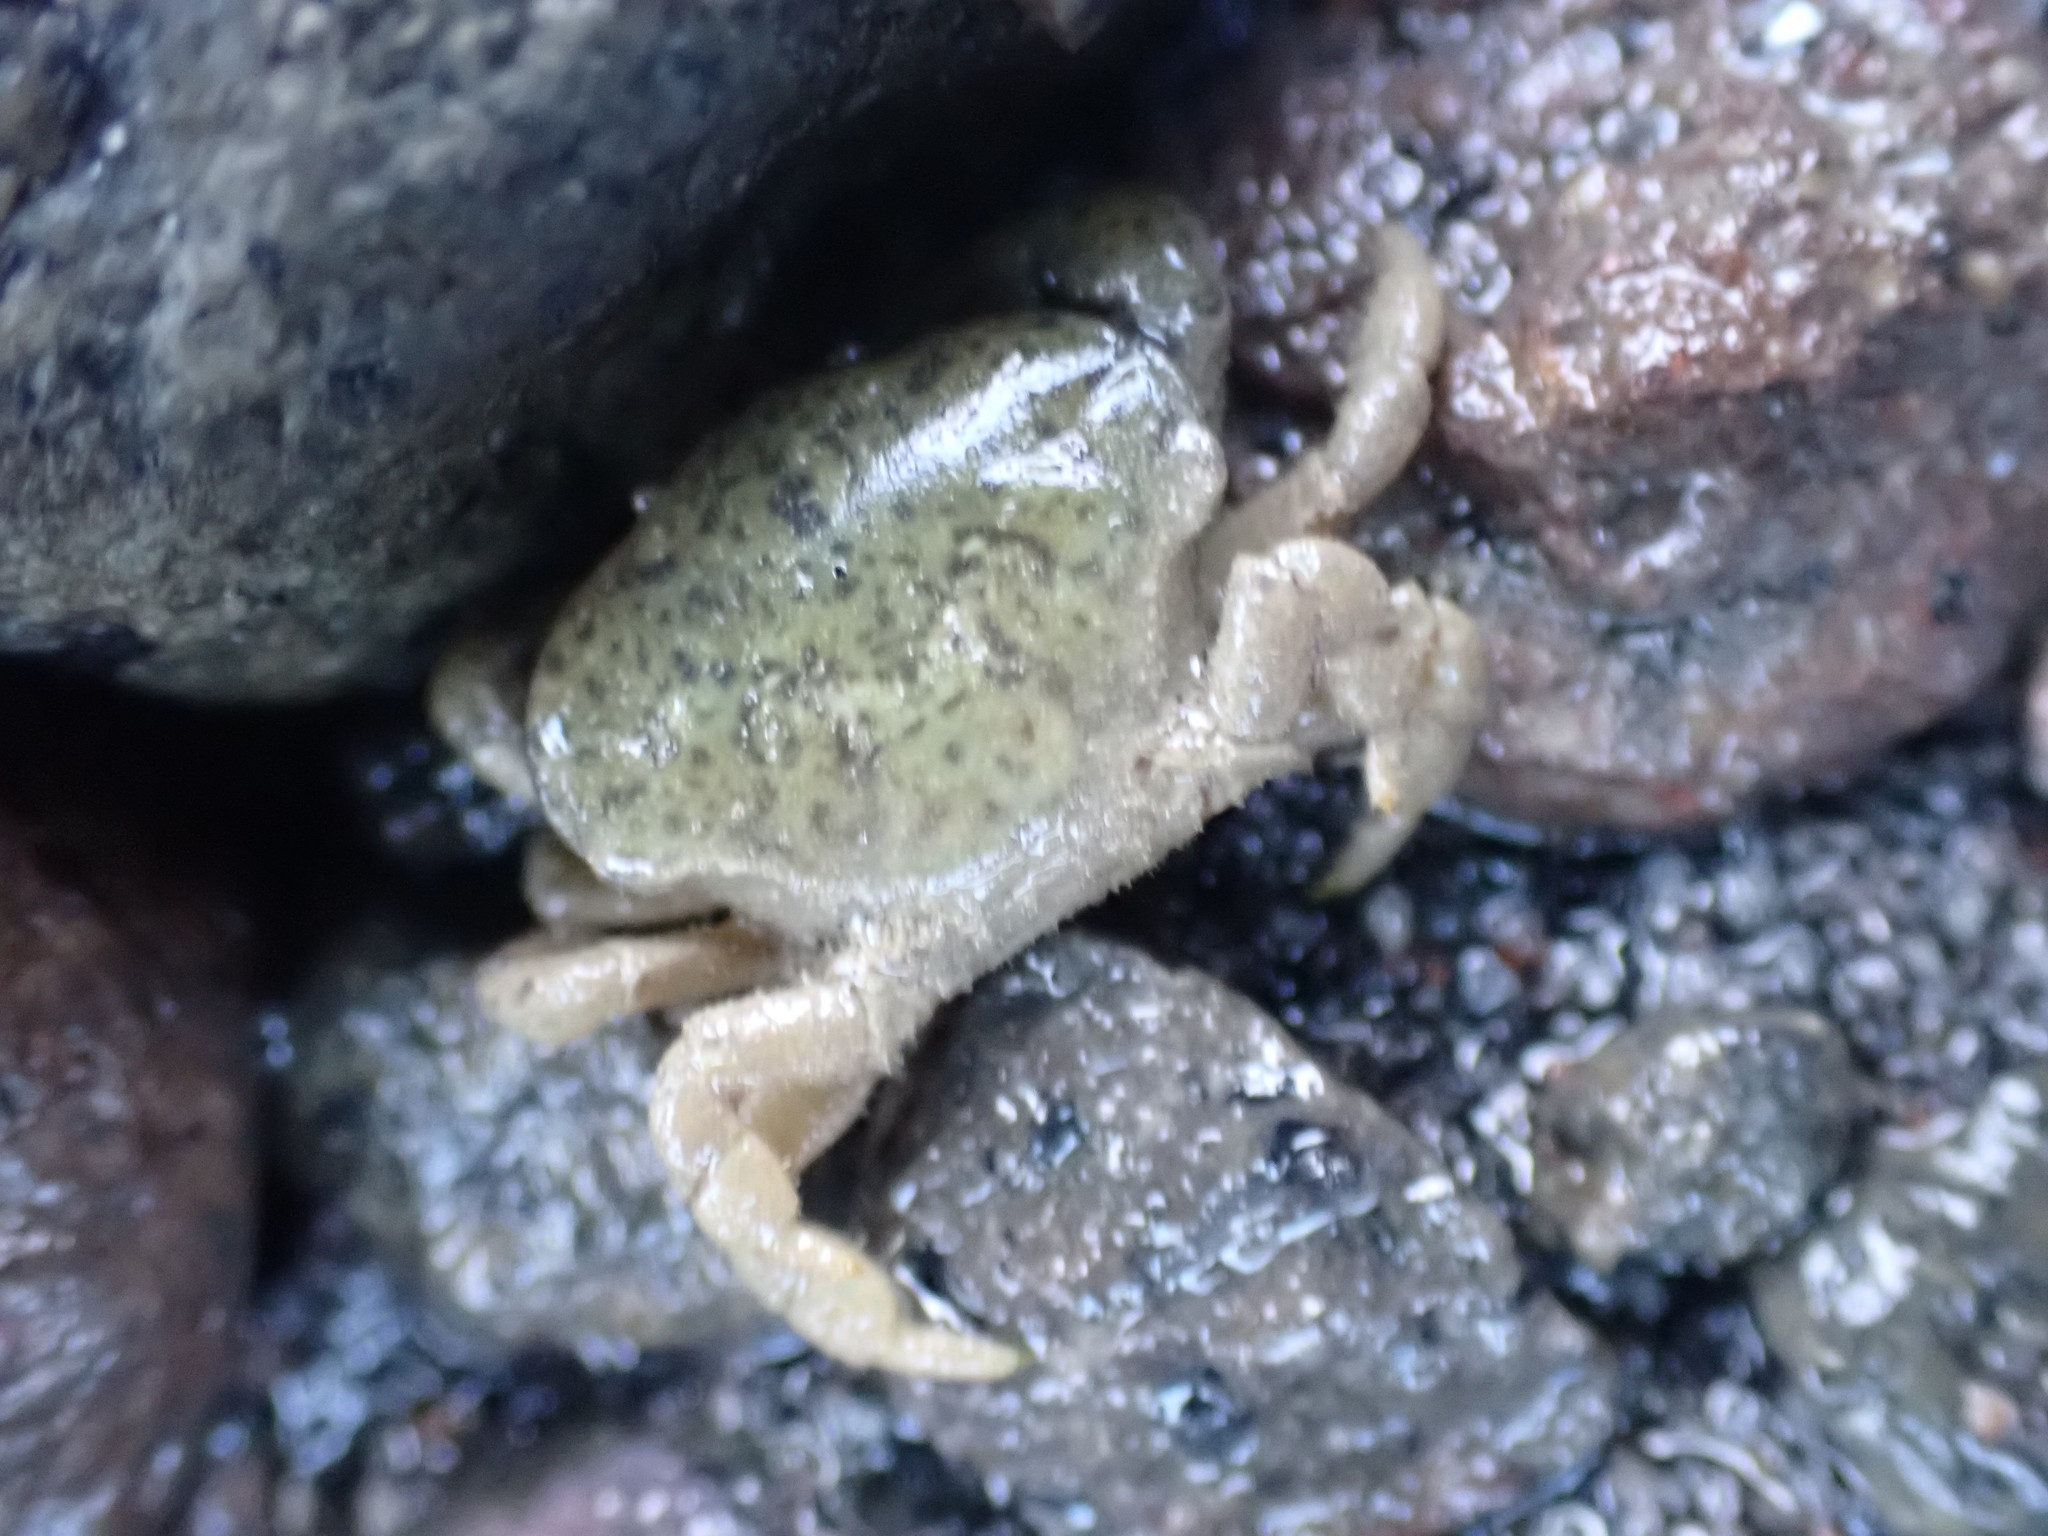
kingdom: Animalia
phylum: Arthropoda
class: Malacostraca
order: Decapoda
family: Heteroziidae
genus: Heterozius
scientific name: Heterozius rotundifrons
